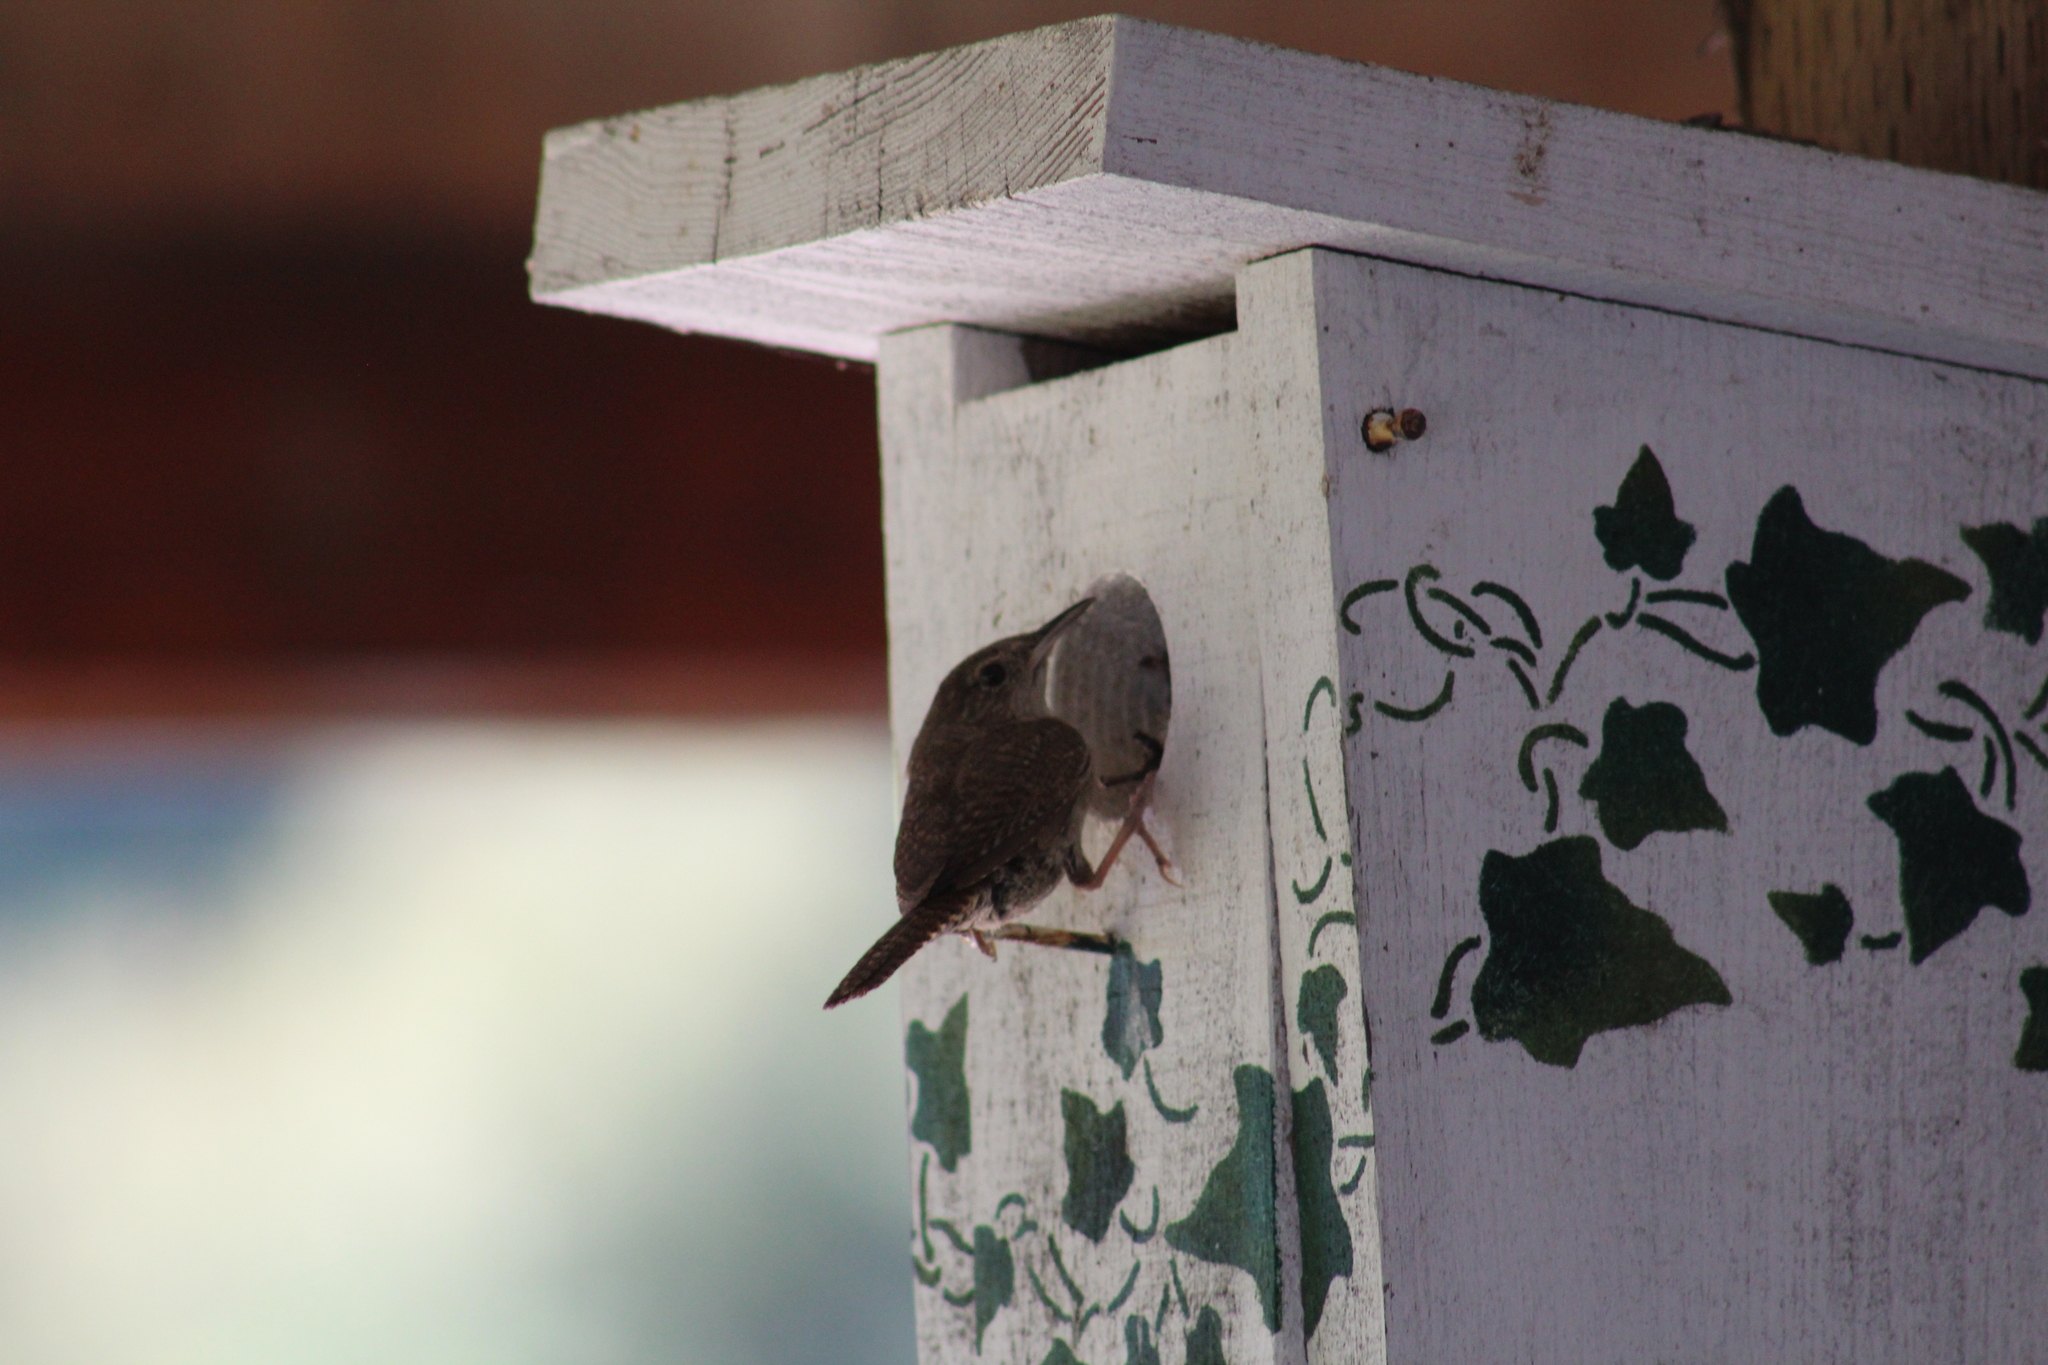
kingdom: Animalia
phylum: Chordata
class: Aves
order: Passeriformes
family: Troglodytidae
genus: Troglodytes
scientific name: Troglodytes aedon
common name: House wren
